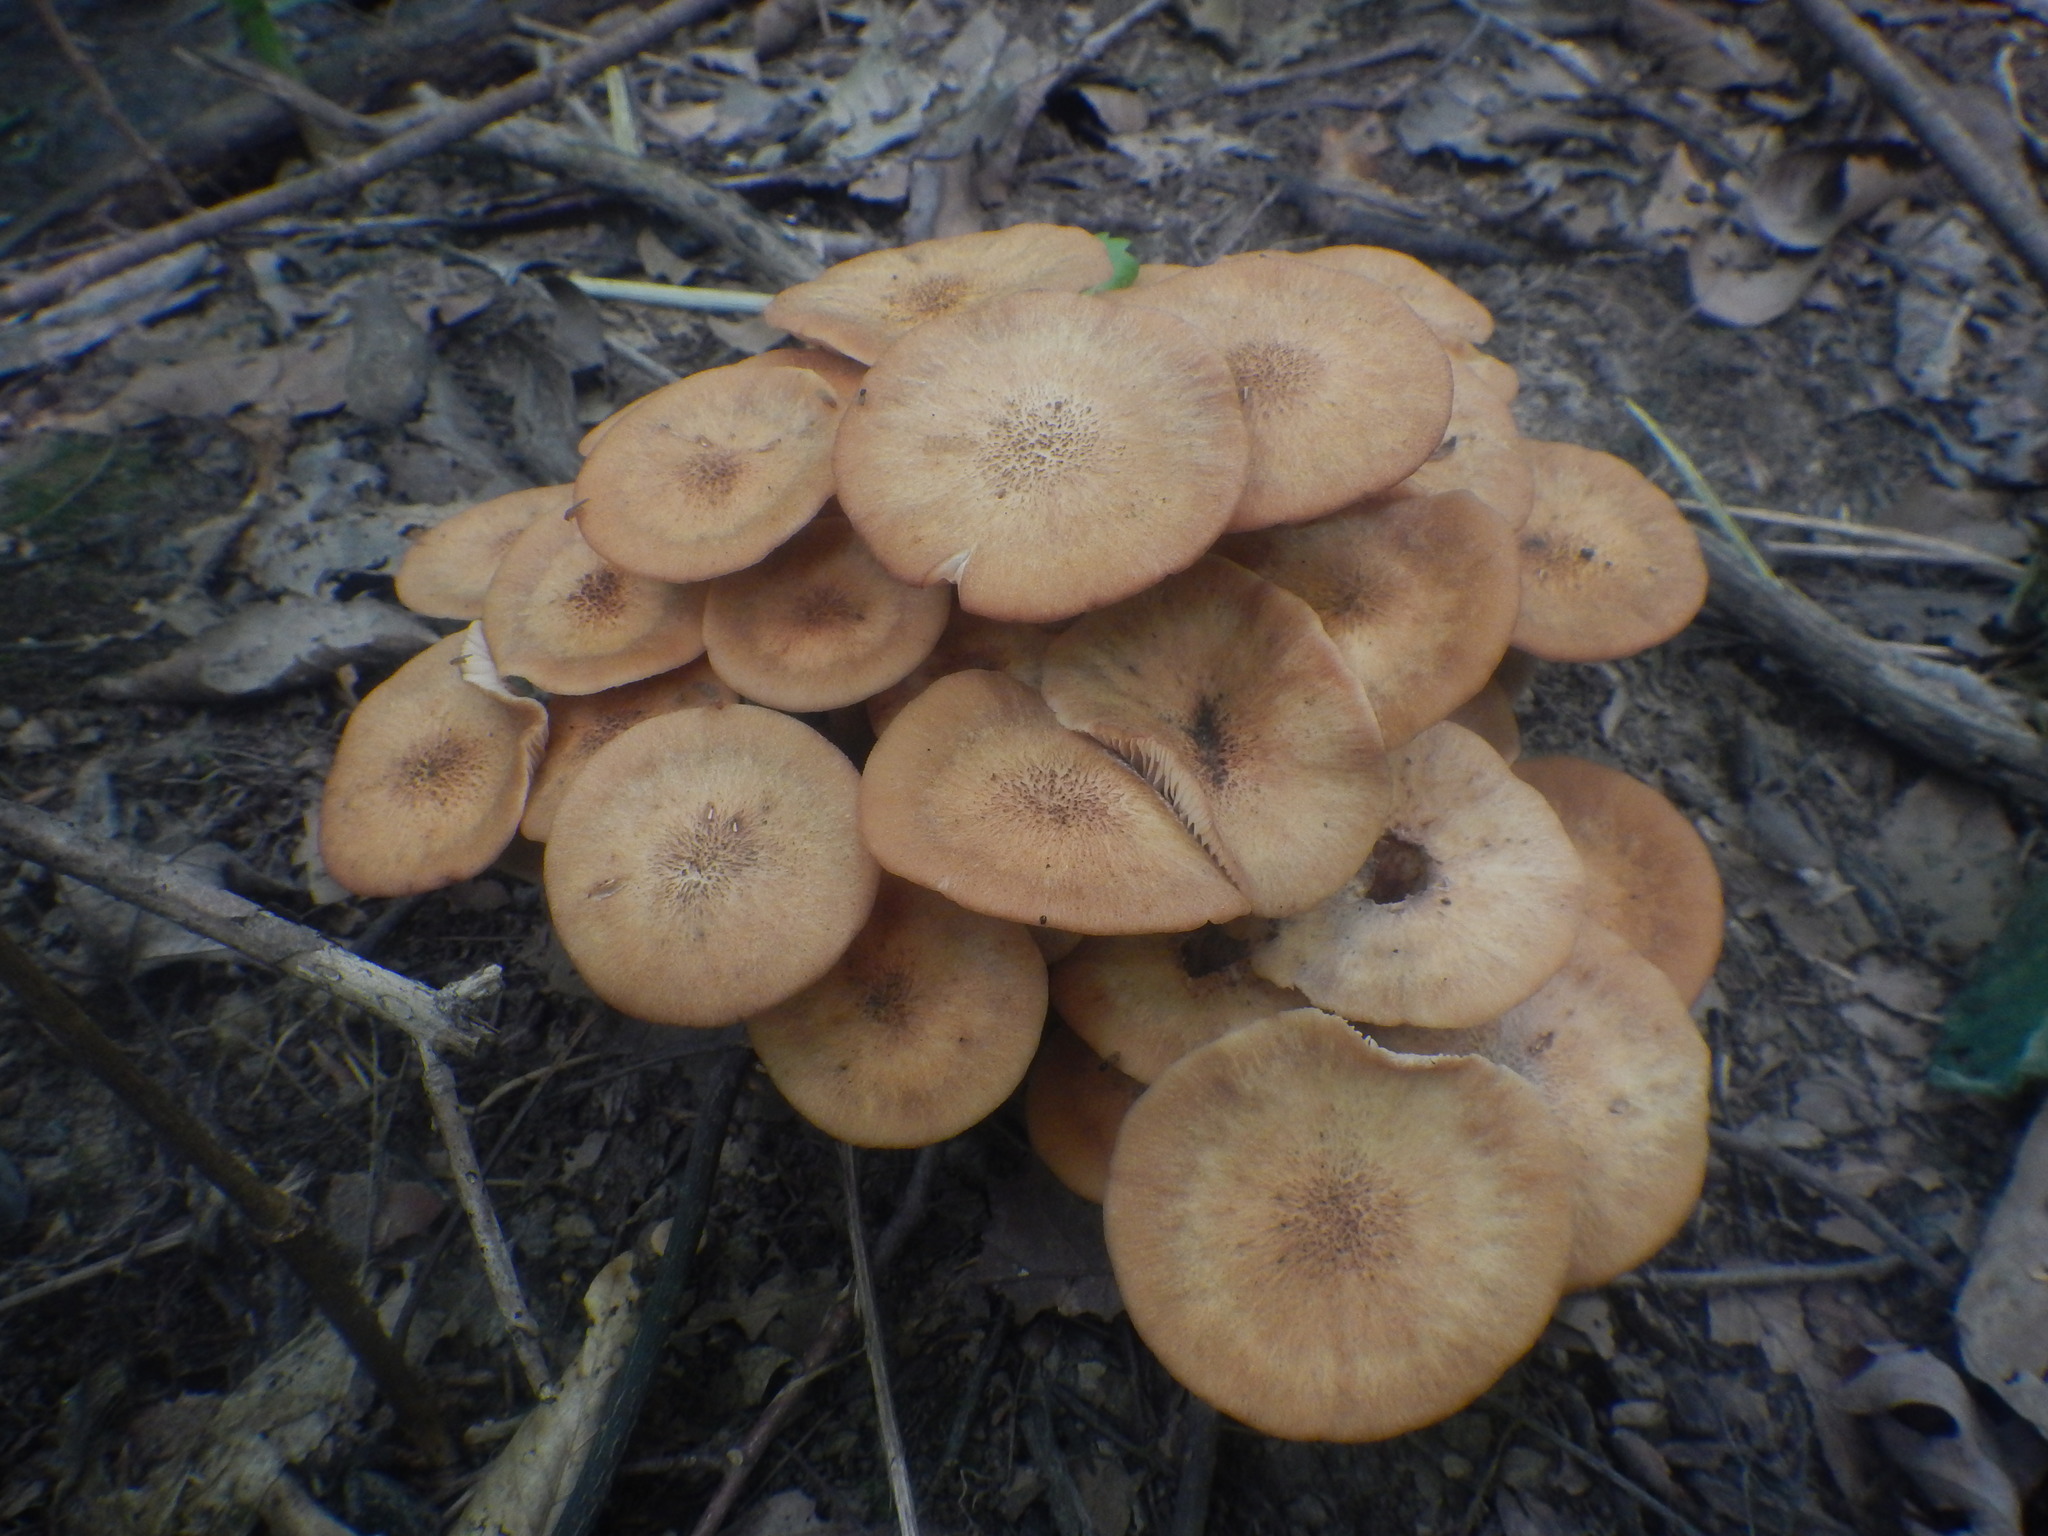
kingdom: Fungi
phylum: Basidiomycota
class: Agaricomycetes
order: Agaricales
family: Physalacriaceae
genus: Desarmillaria
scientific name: Desarmillaria caespitosa
